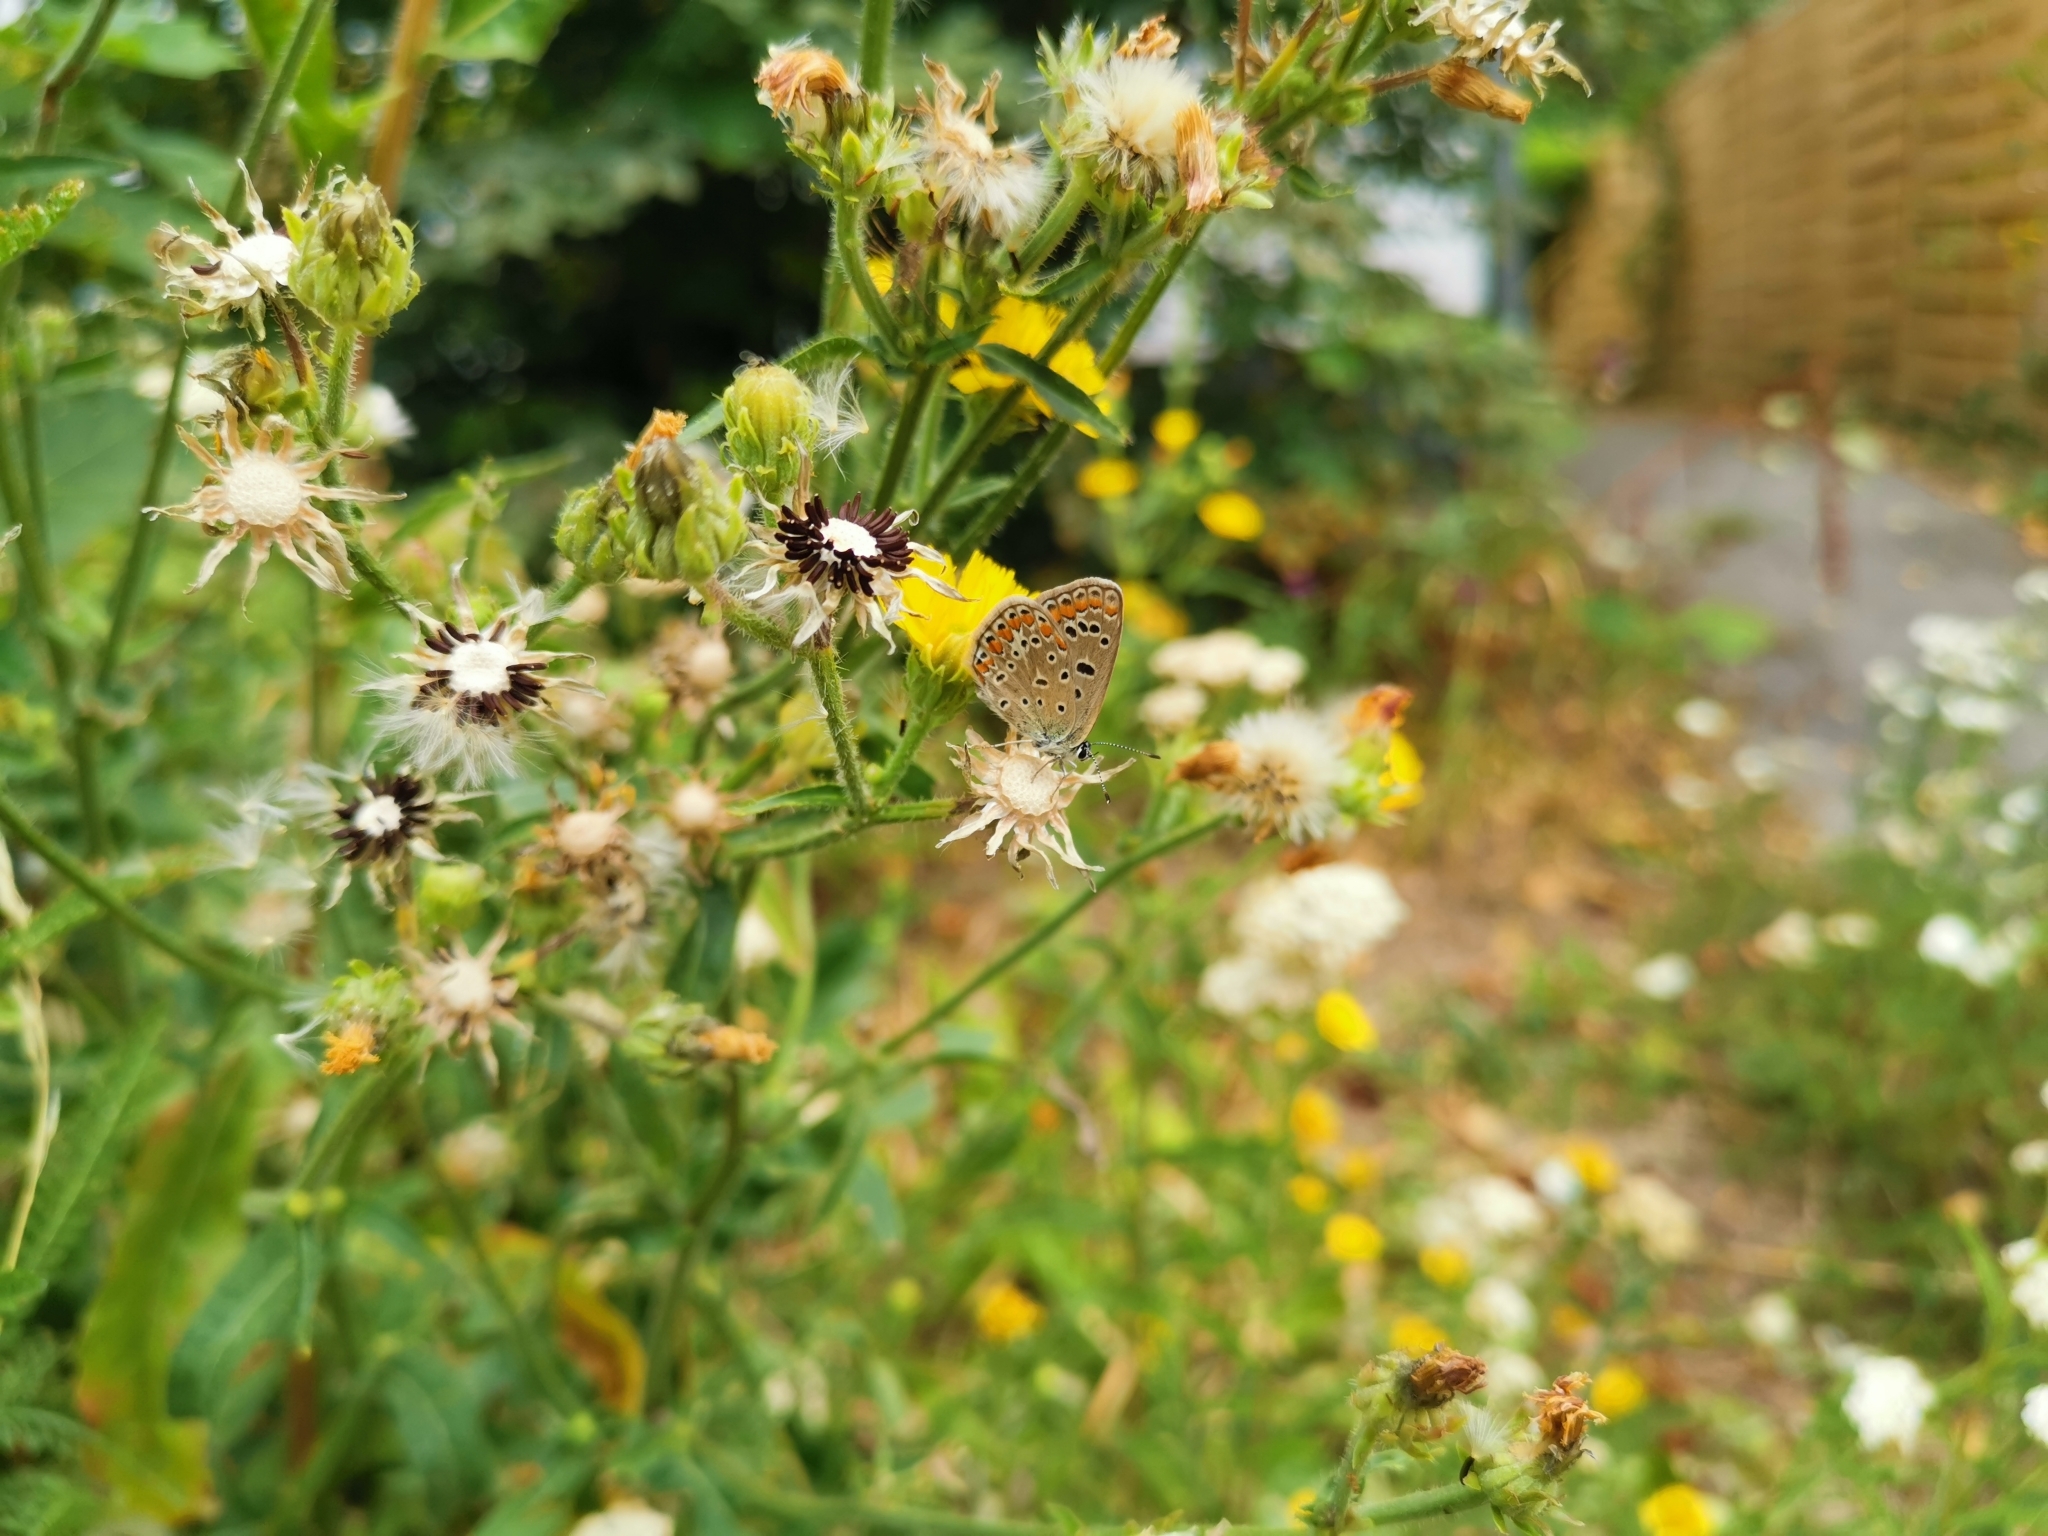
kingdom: Animalia
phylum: Arthropoda
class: Insecta
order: Lepidoptera
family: Lycaenidae
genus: Polyommatus
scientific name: Polyommatus icarus
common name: Common blue
